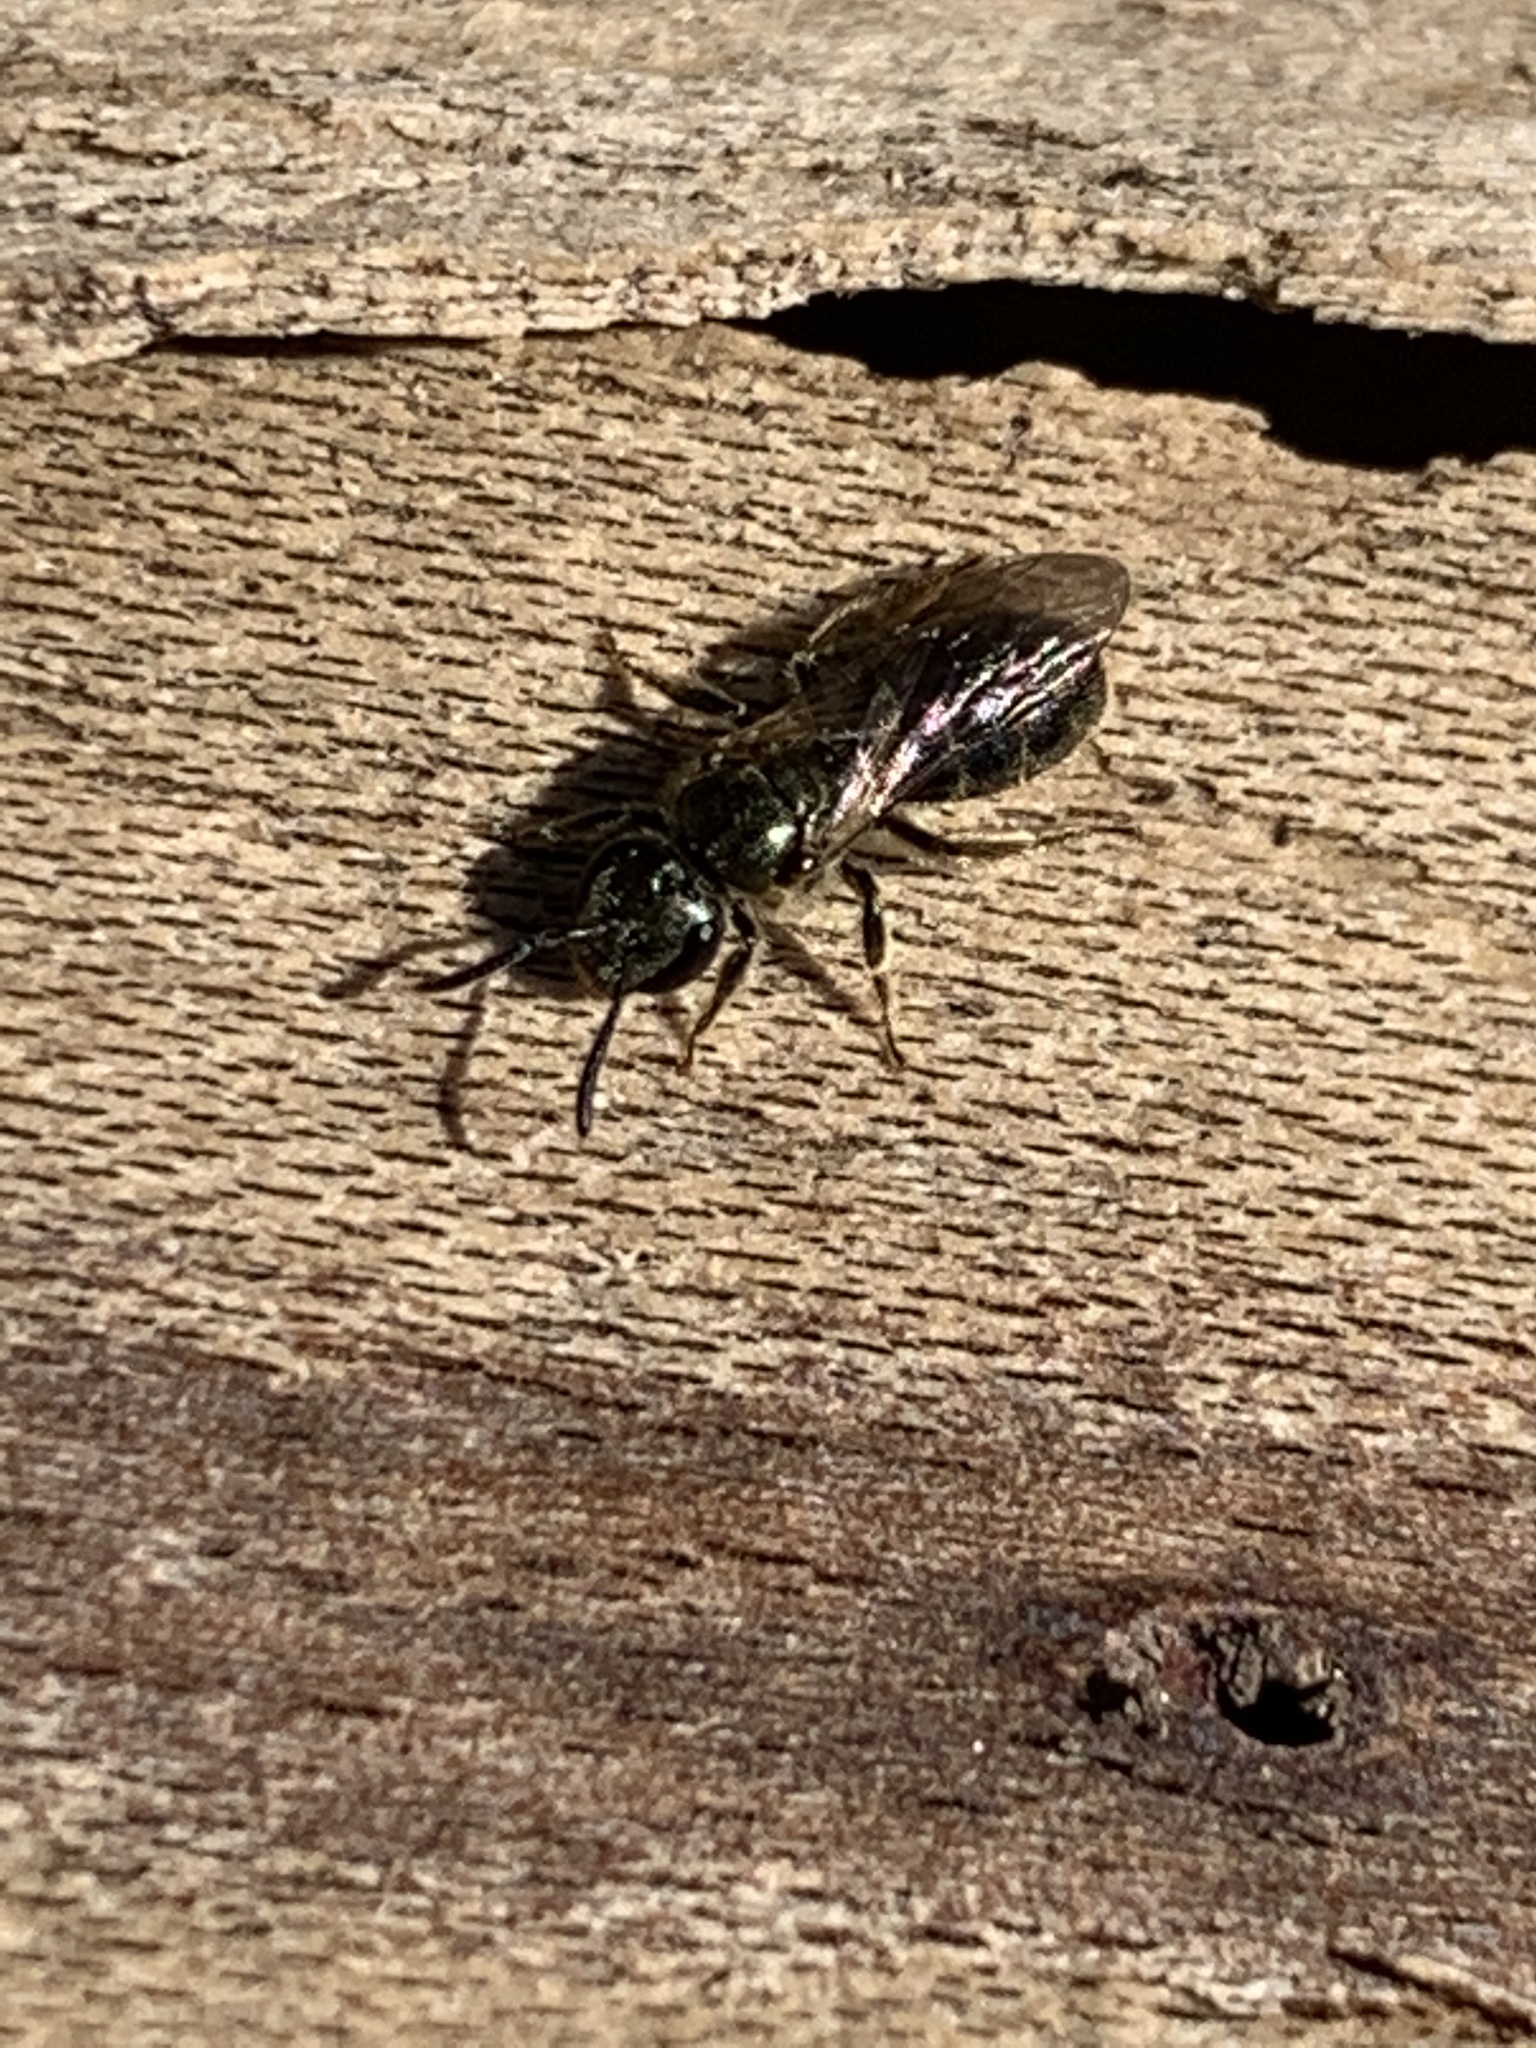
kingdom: Animalia
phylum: Arthropoda
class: Insecta
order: Hymenoptera
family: Halictidae
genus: Dialictus
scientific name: Dialictus
